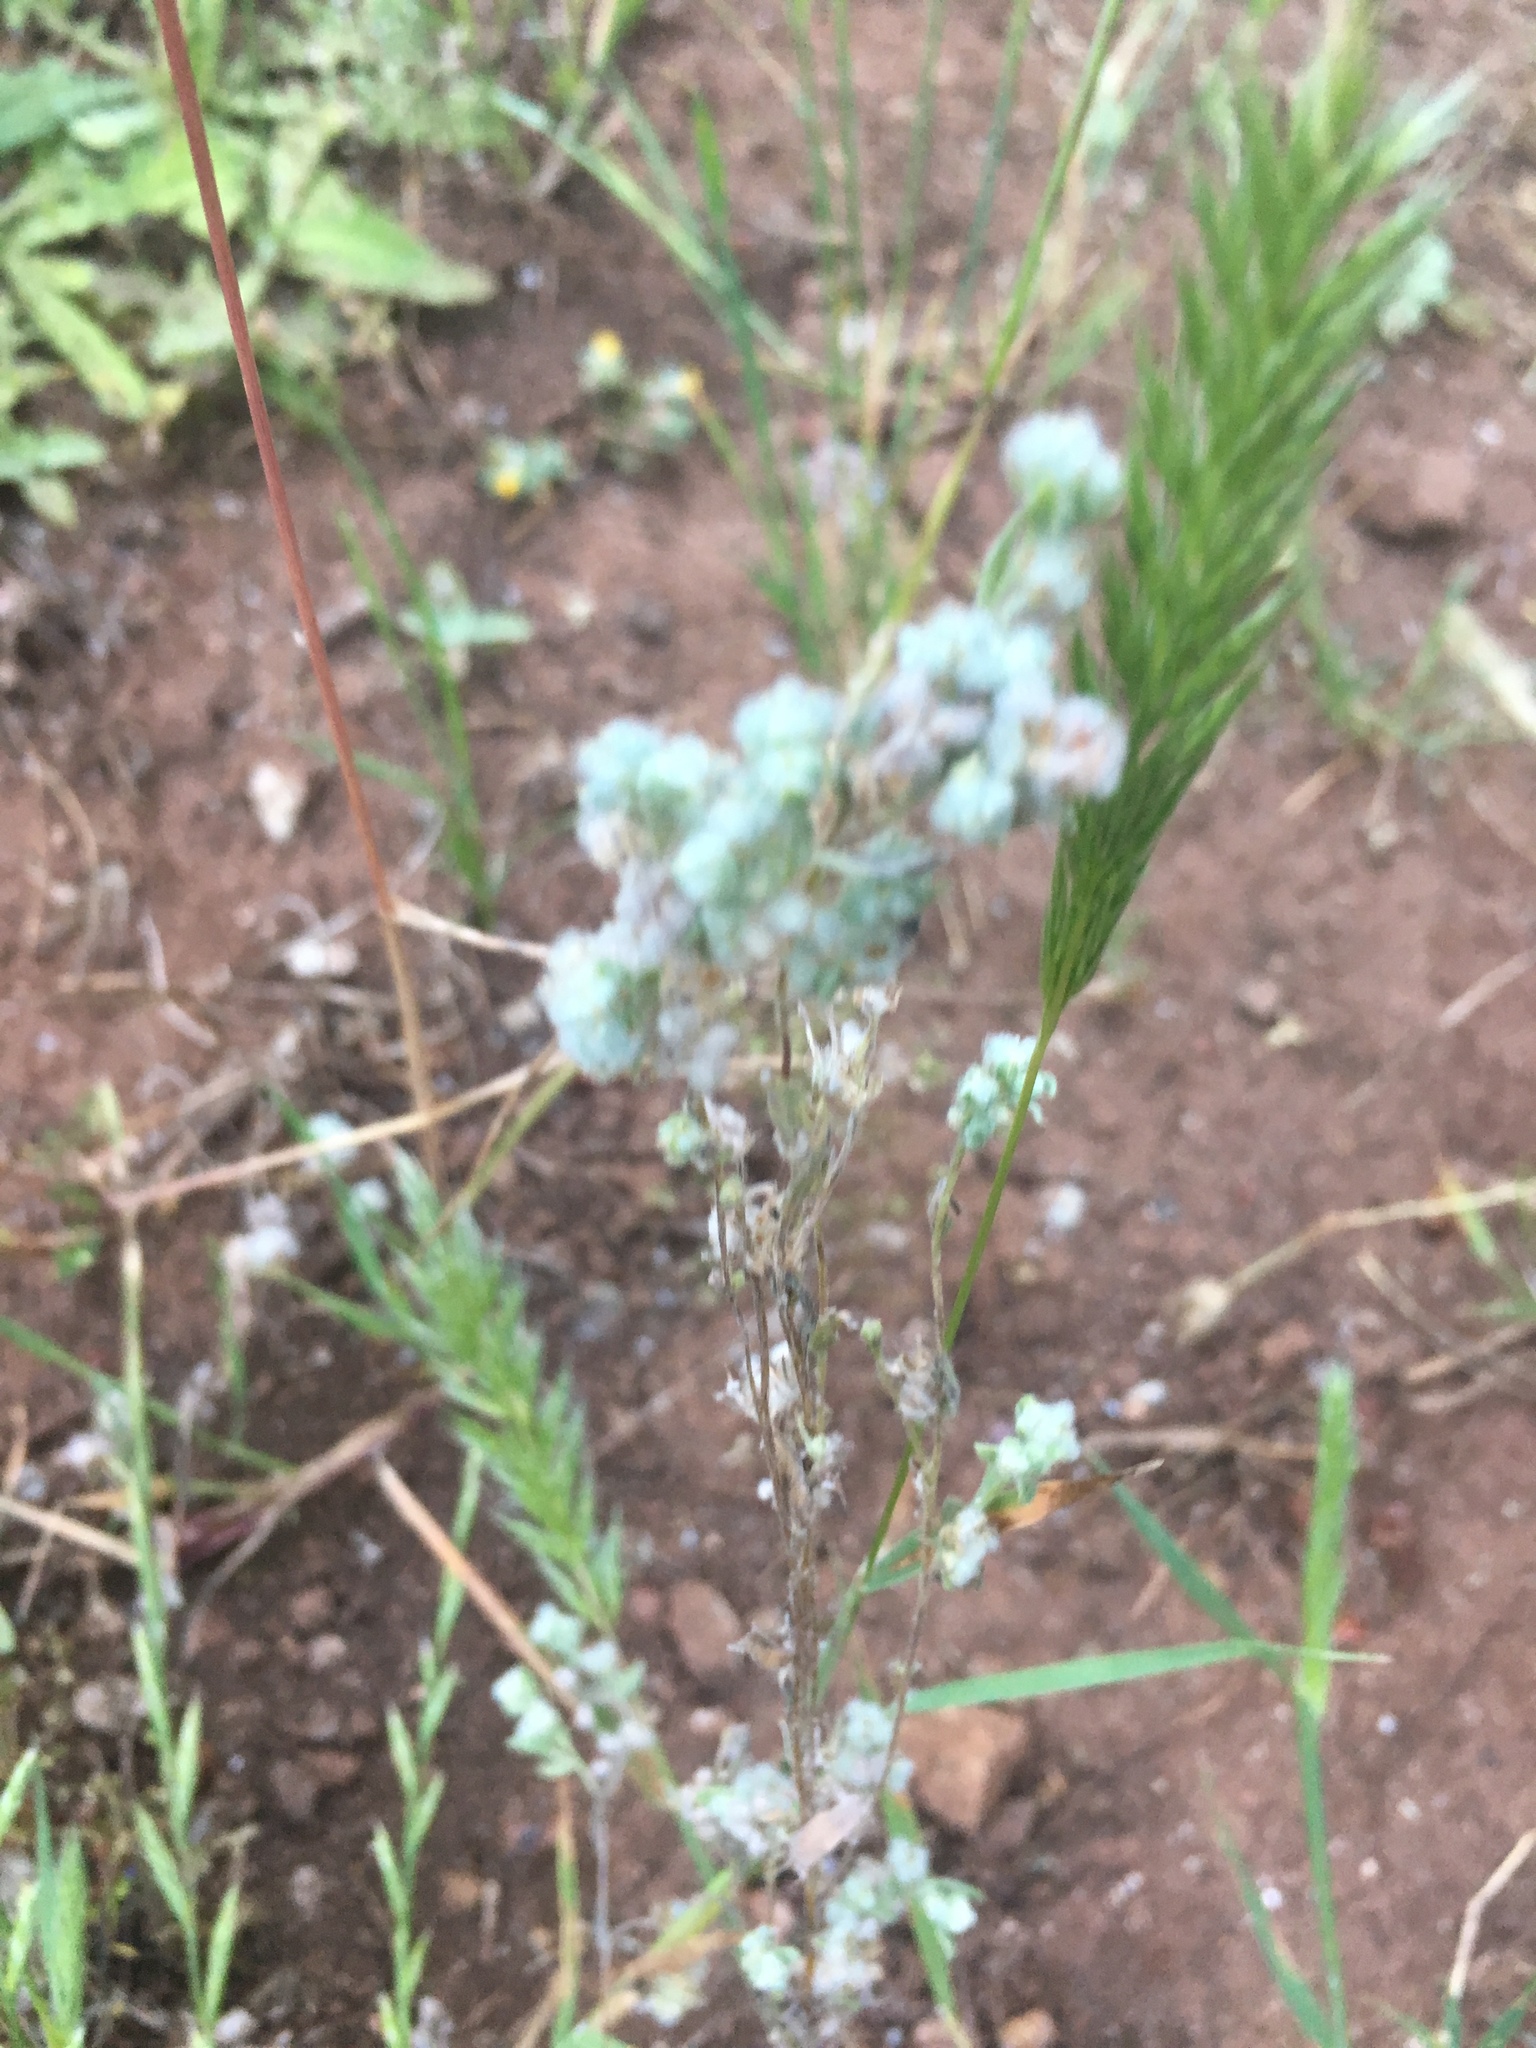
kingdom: Plantae
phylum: Tracheophyta
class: Magnoliopsida
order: Asterales
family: Asteraceae
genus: Bombycilaena
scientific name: Bombycilaena californica
